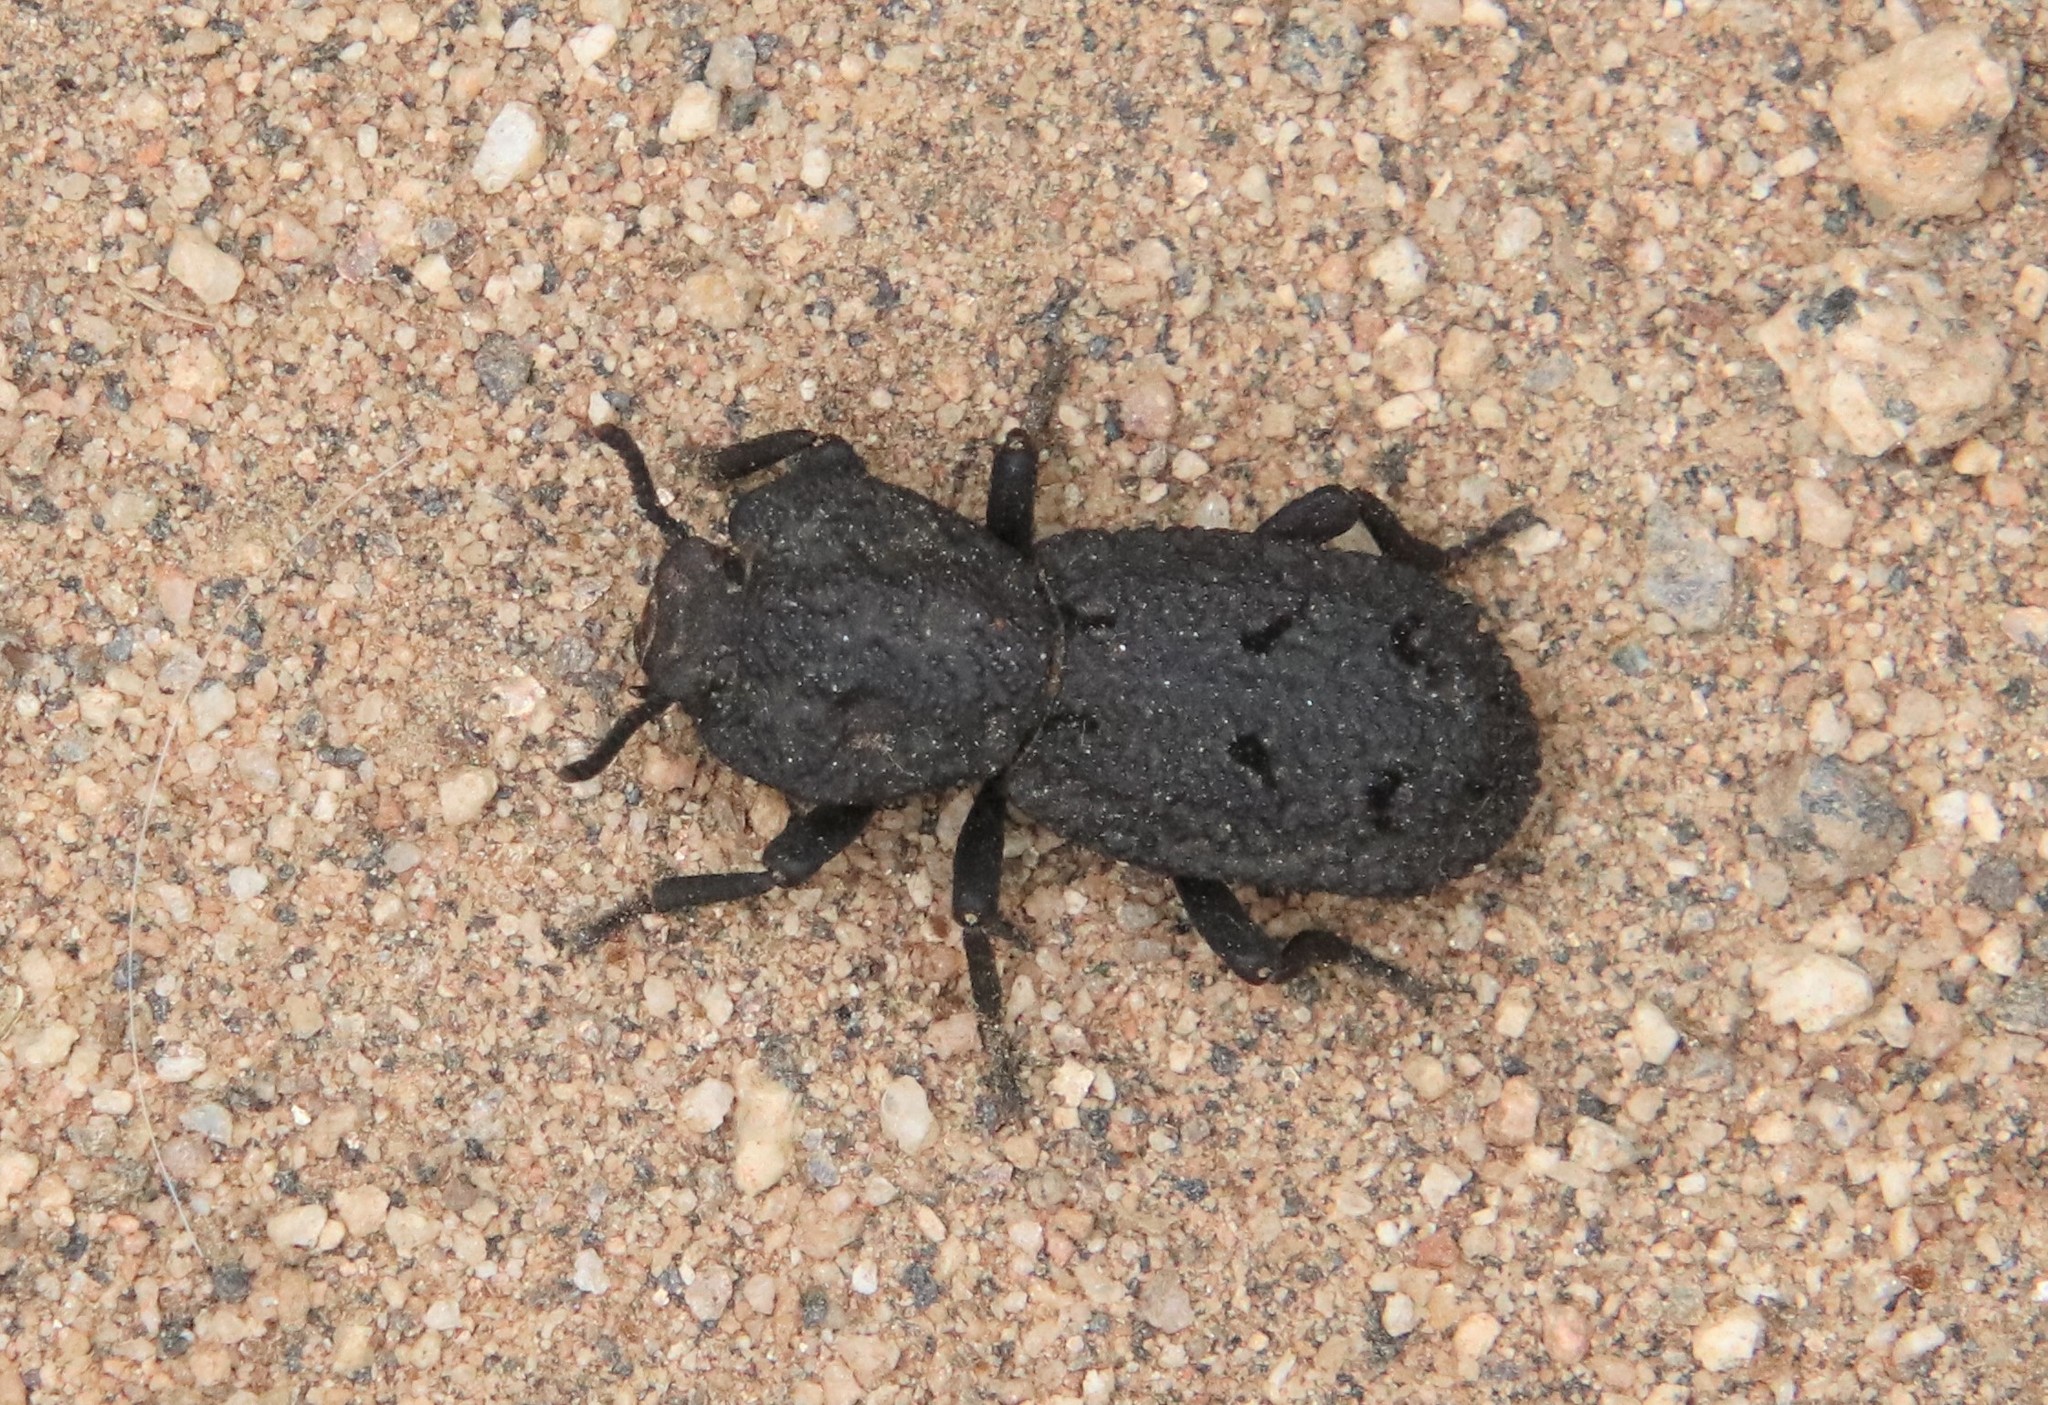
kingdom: Animalia
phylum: Arthropoda
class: Insecta
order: Coleoptera
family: Zopheridae
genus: Phloeodes
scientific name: Phloeodes diabolicus
